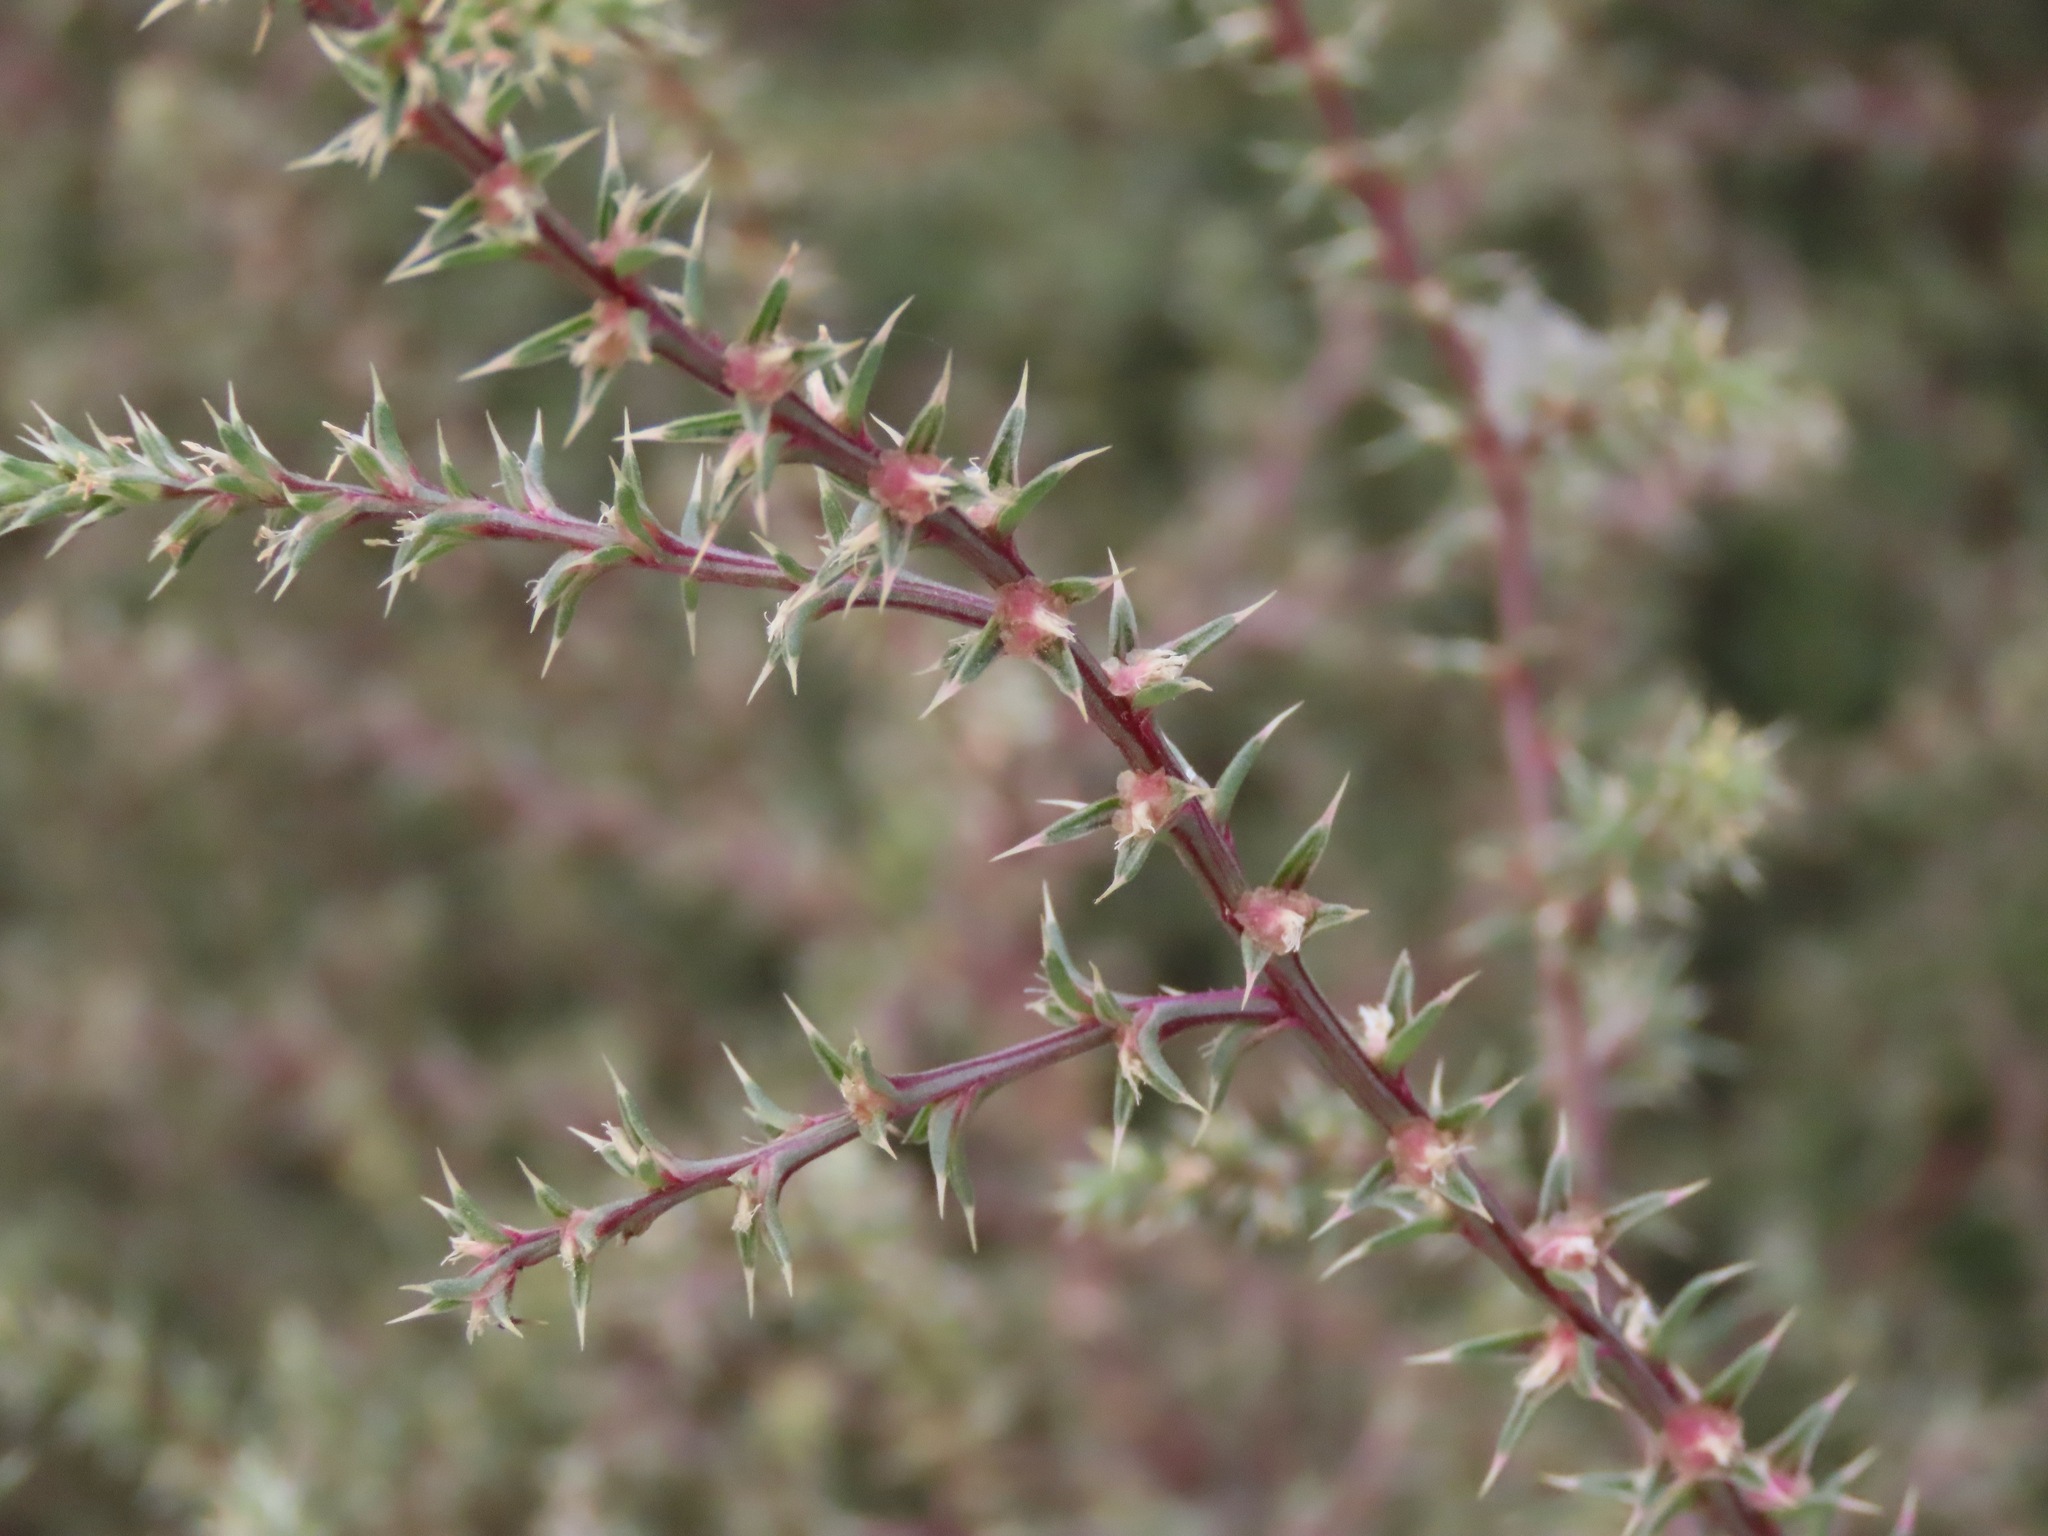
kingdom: Plantae
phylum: Tracheophyta
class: Magnoliopsida
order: Caryophyllales
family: Amaranthaceae
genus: Salsola
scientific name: Salsola tragus
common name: Prickly russian thistle
